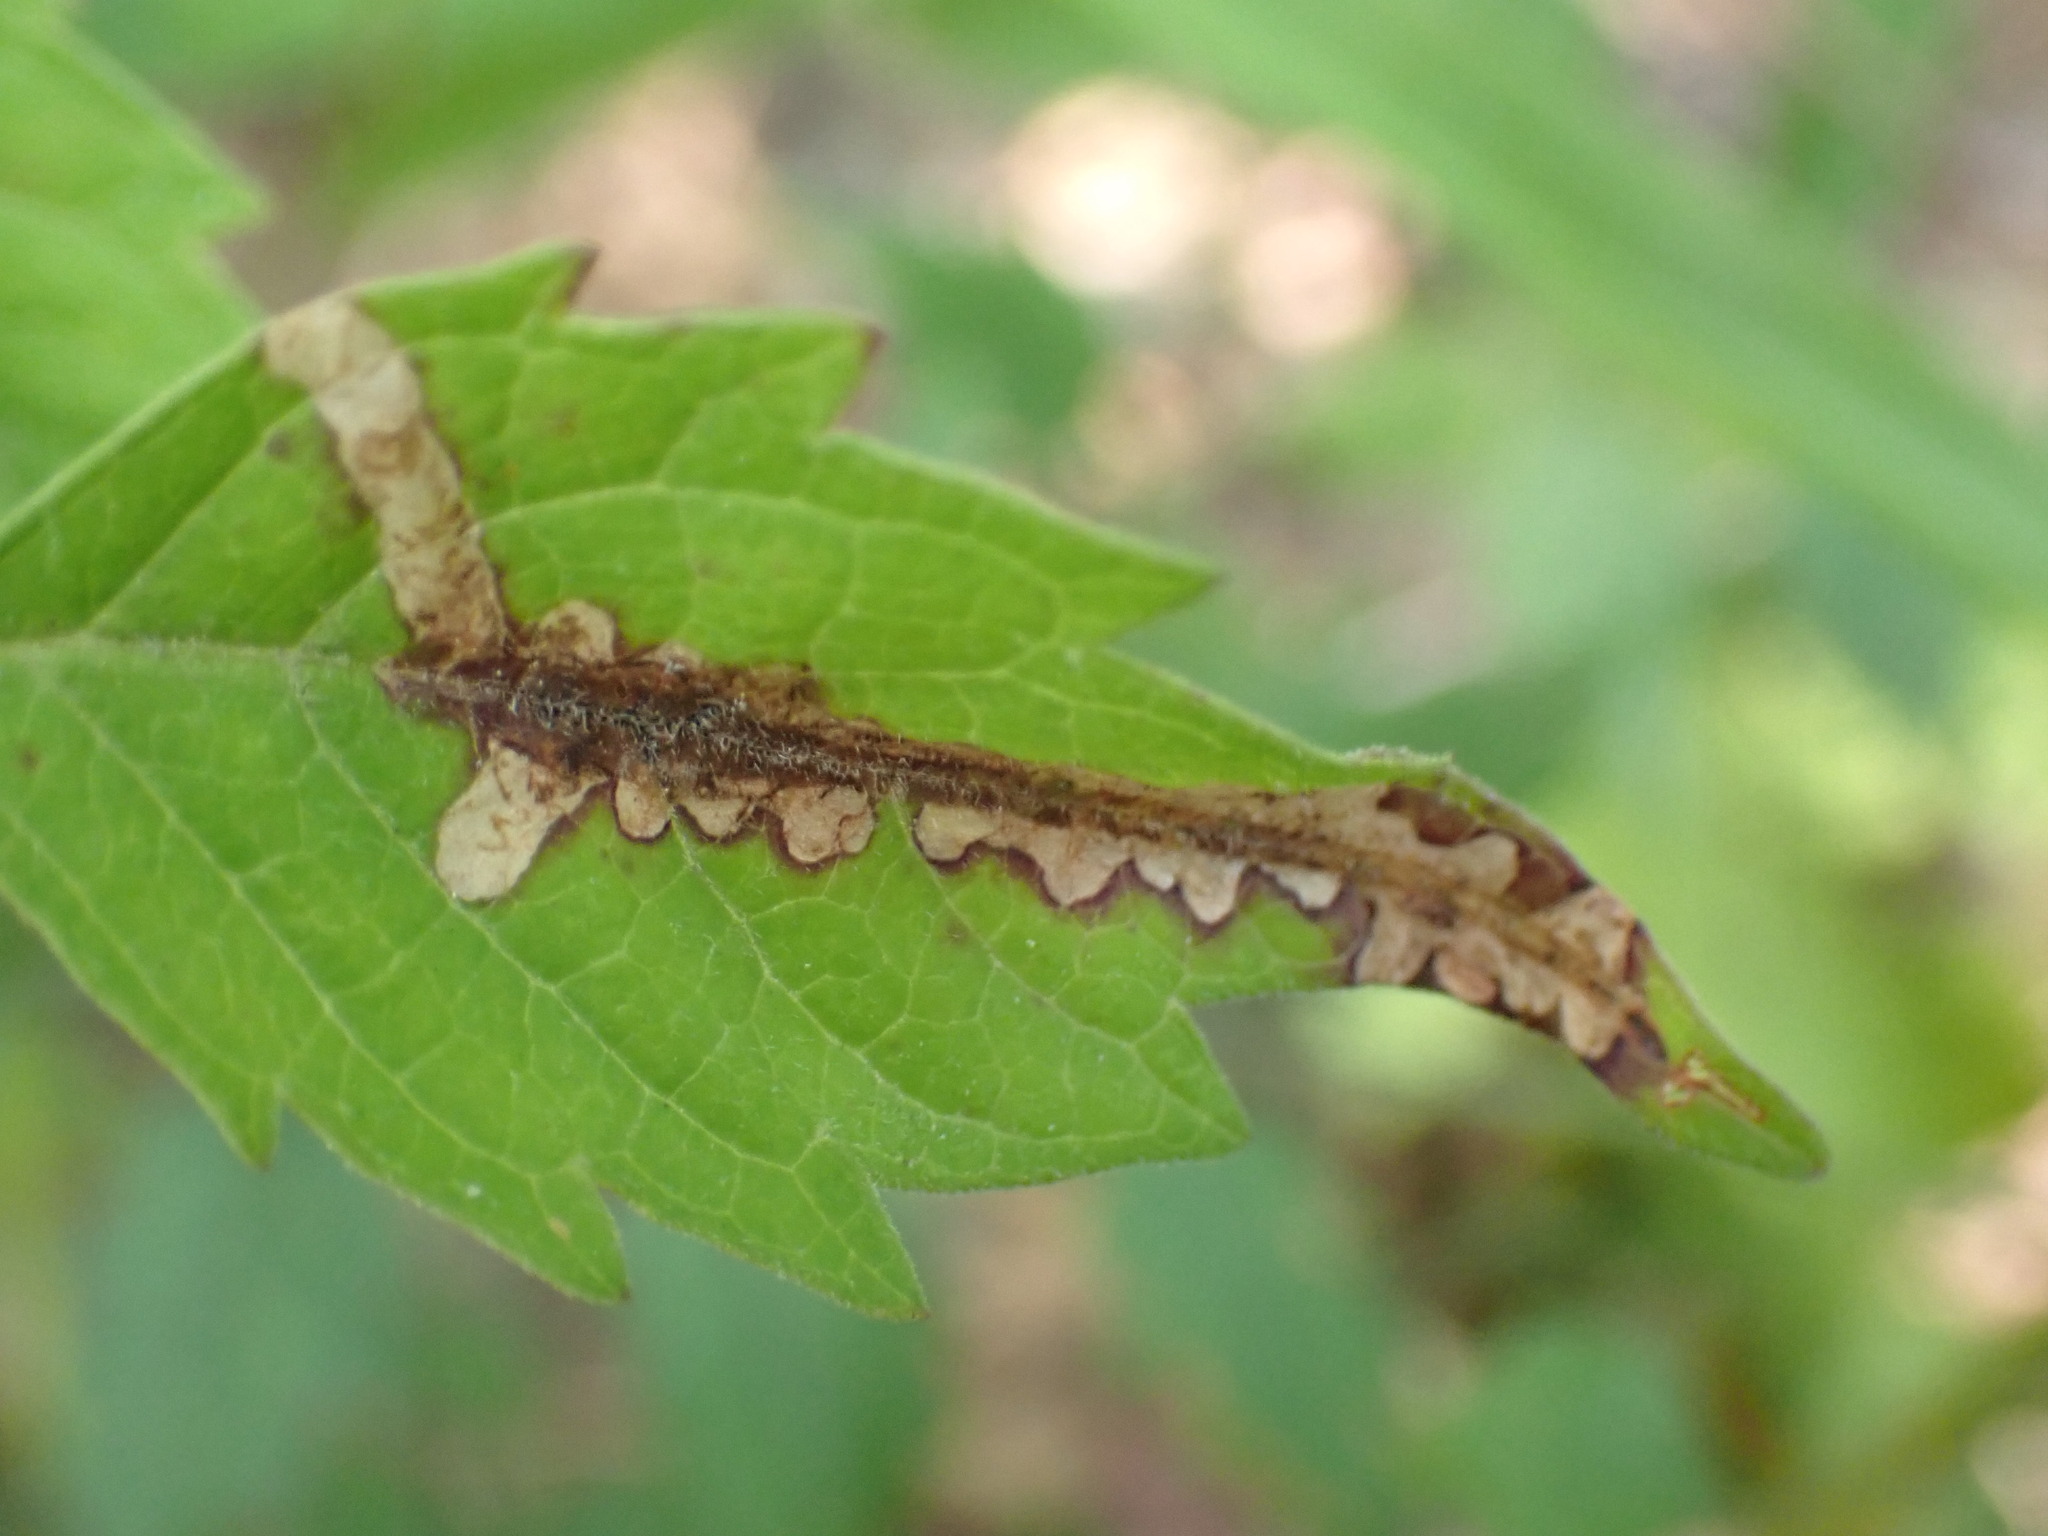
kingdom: Animalia
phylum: Arthropoda
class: Insecta
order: Coleoptera
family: Chrysomelidae
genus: Octotoma
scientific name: Octotoma plicatula
